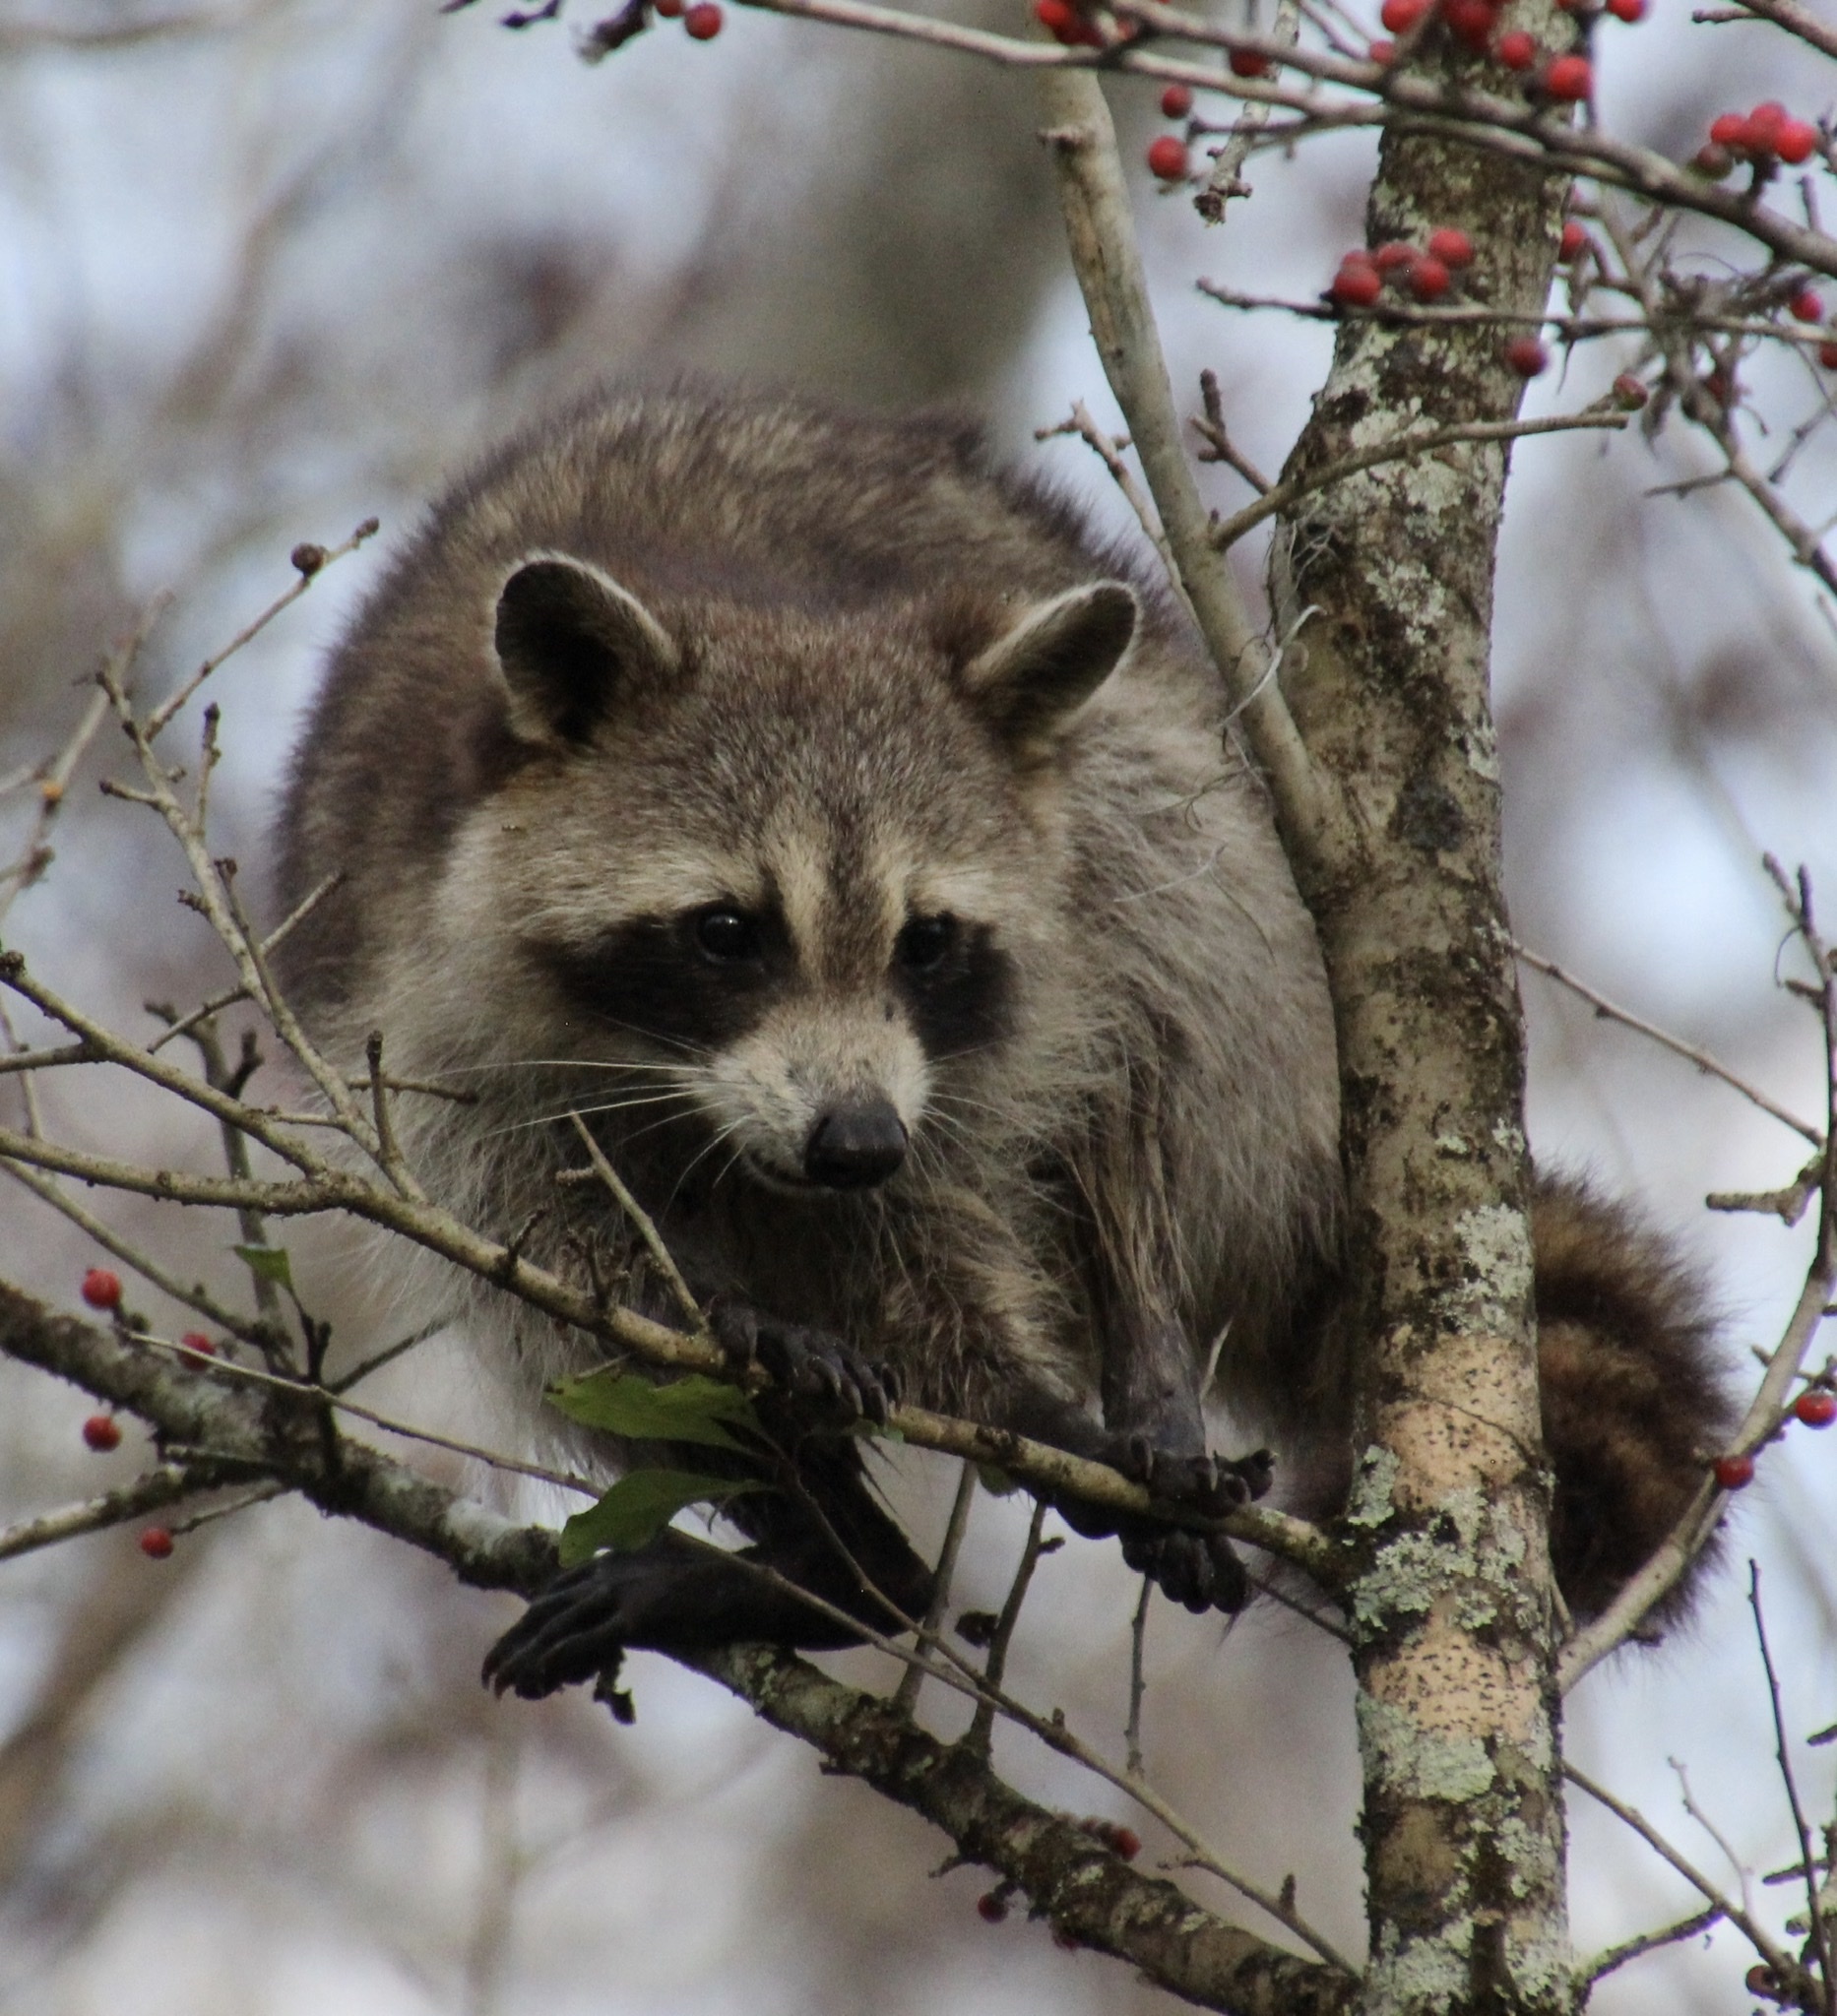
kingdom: Animalia
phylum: Chordata
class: Mammalia
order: Carnivora
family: Procyonidae
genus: Procyon
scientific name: Procyon lotor
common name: Raccoon
